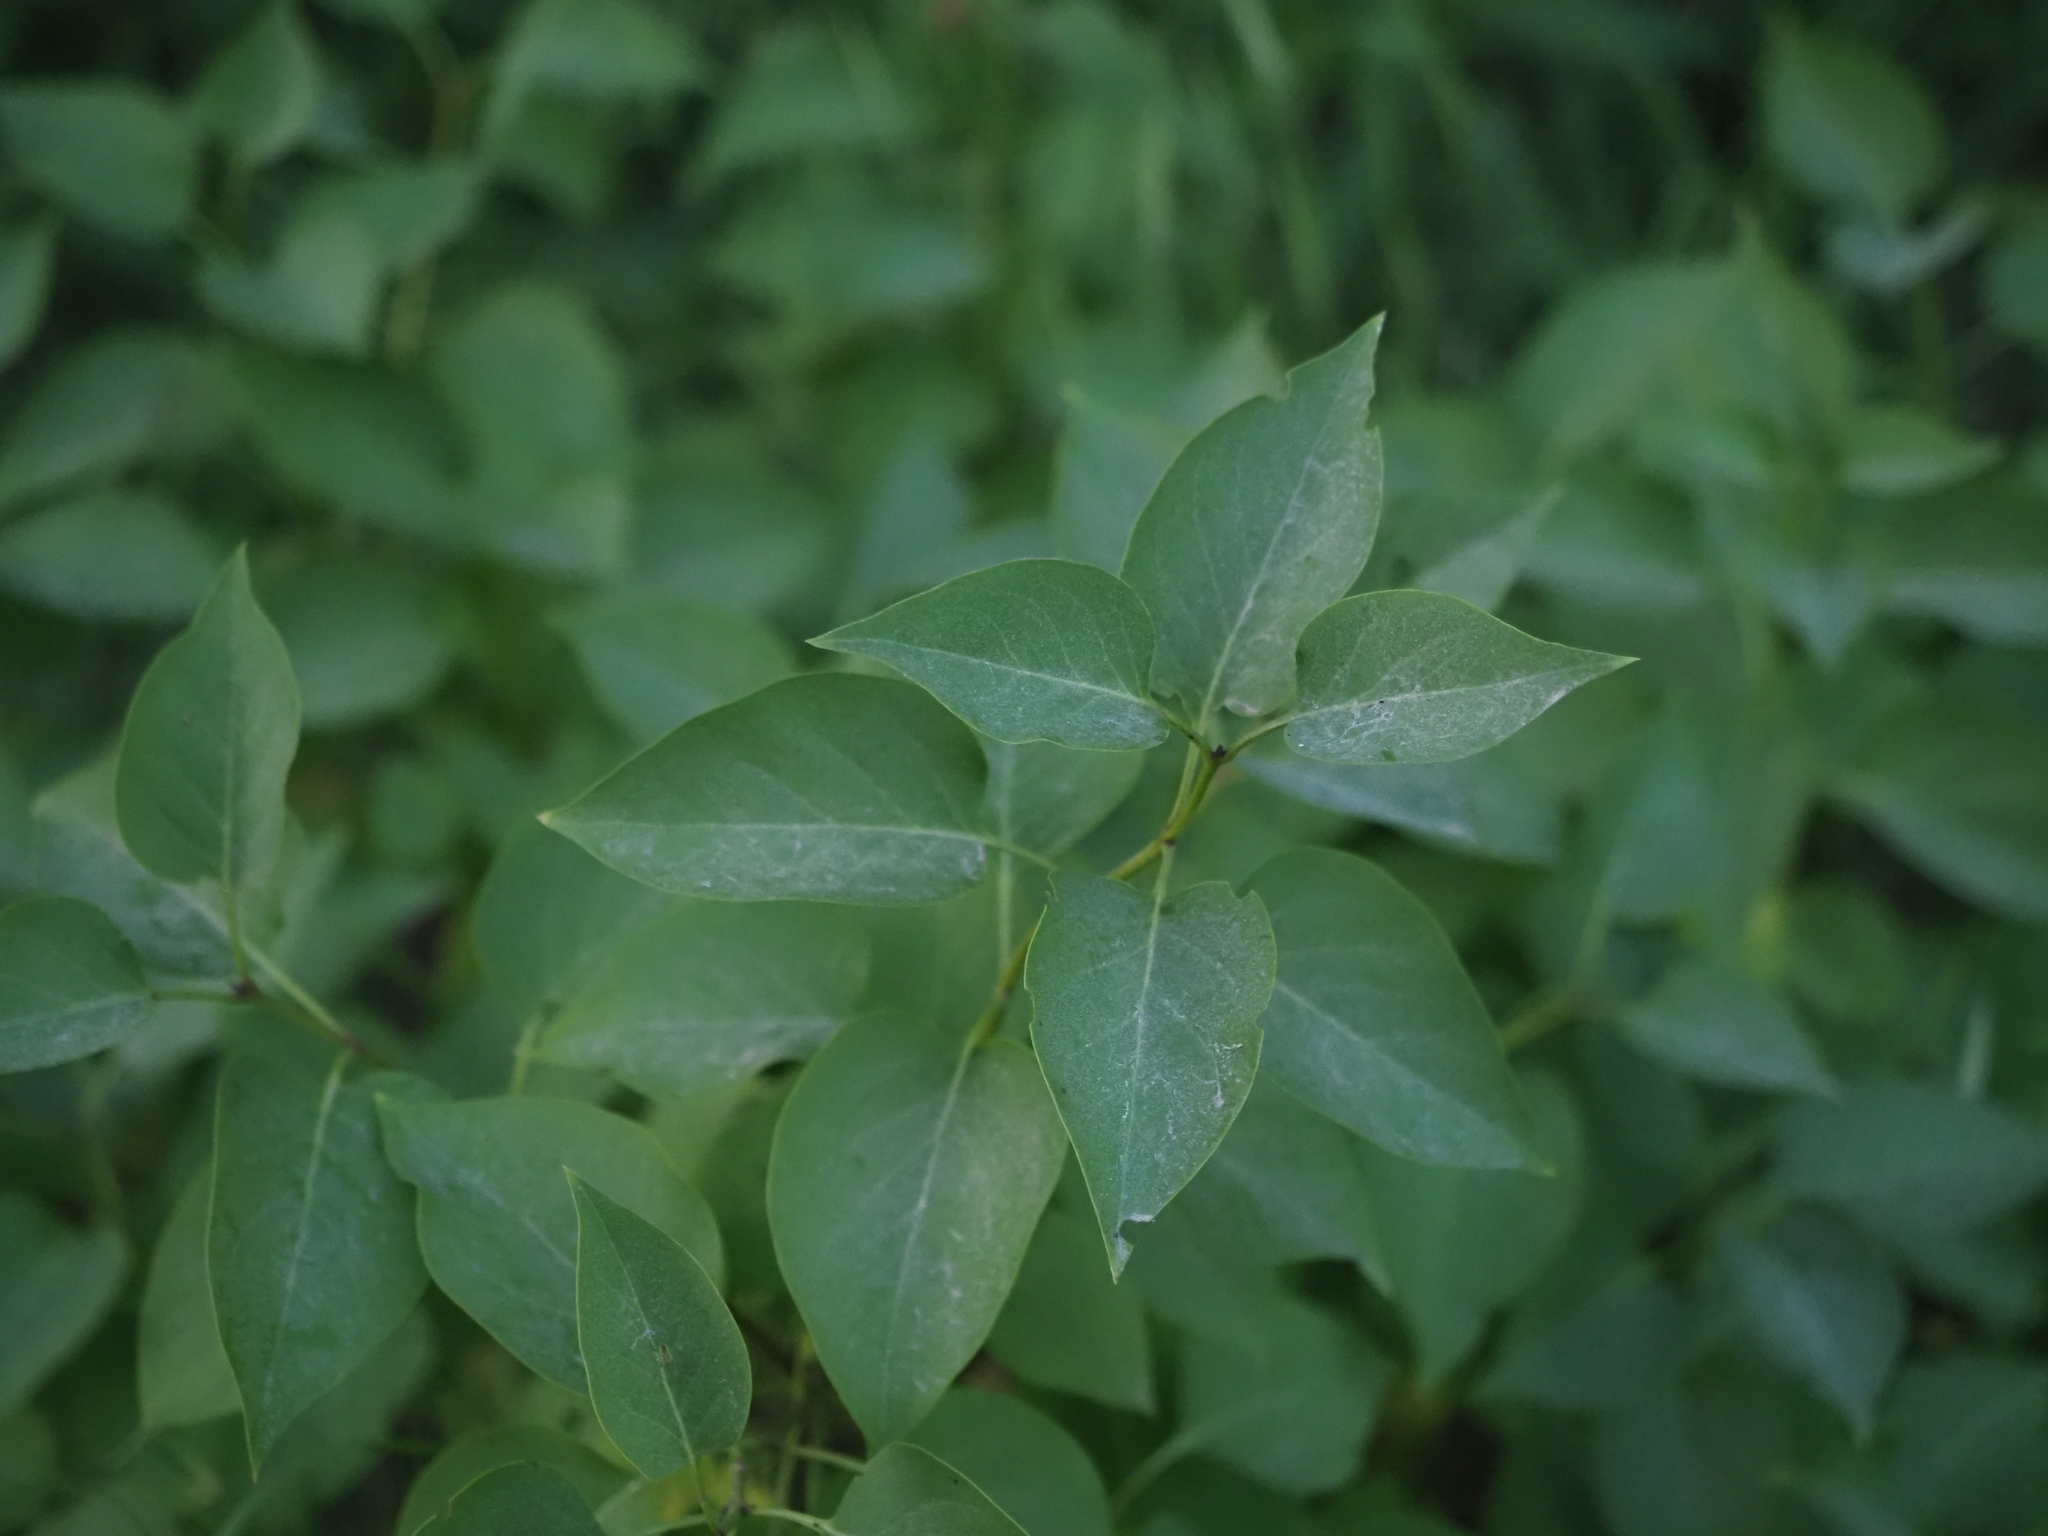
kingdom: Plantae
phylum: Tracheophyta
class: Magnoliopsida
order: Lamiales
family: Oleaceae
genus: Syringa
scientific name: Syringa vulgaris
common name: Common lilac
